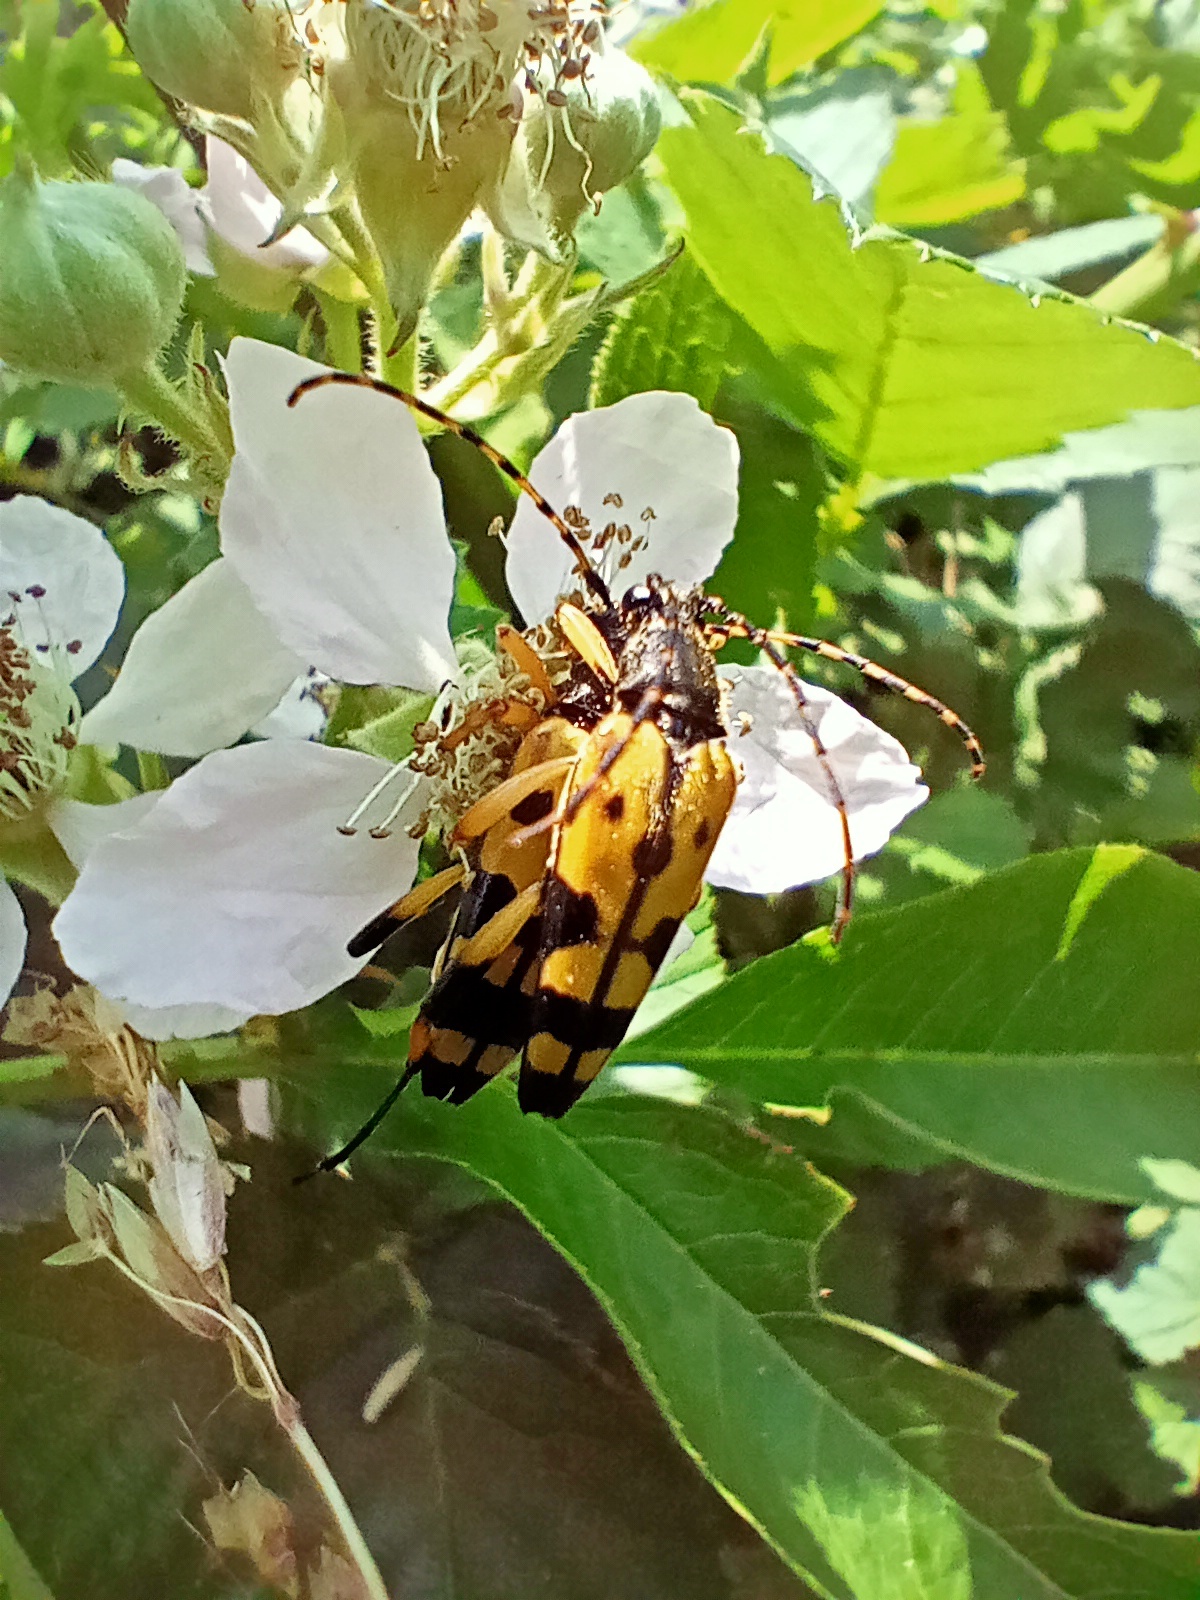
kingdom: Animalia
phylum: Arthropoda
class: Insecta
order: Coleoptera
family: Cerambycidae
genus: Rutpela
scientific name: Rutpela maculata
